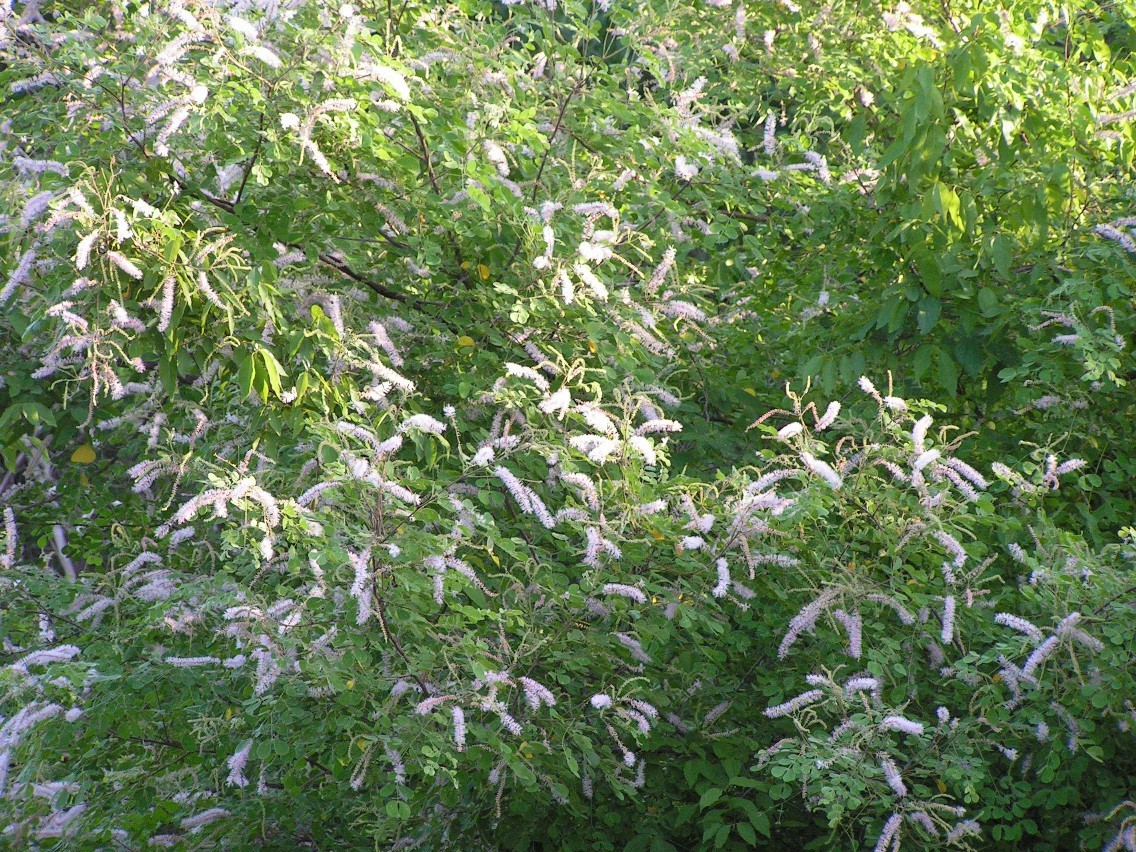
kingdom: Plantae
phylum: Tracheophyta
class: Magnoliopsida
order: Fabales
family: Fabaceae
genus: Mimosa
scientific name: Mimosa
